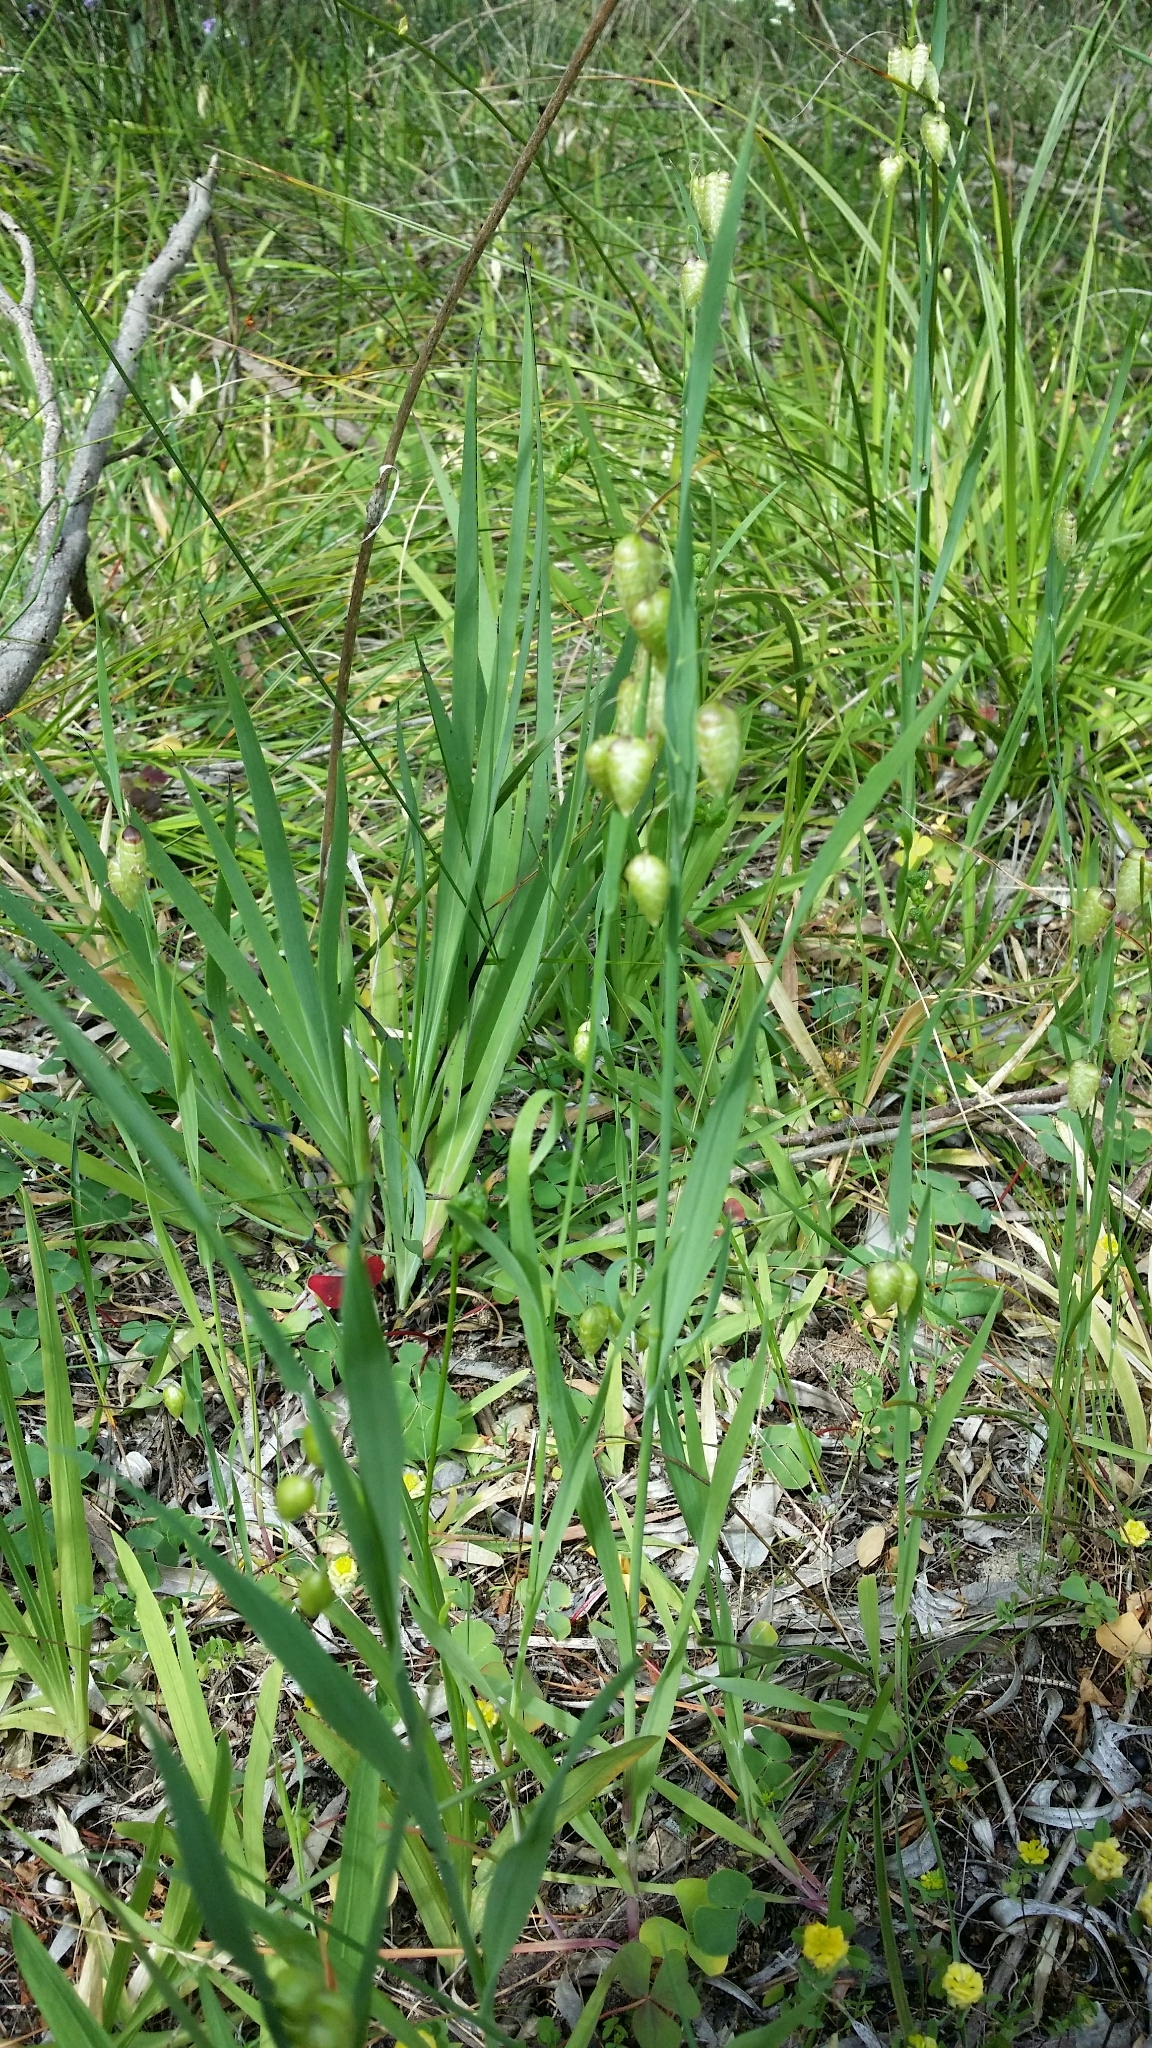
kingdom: Plantae
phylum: Tracheophyta
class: Liliopsida
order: Poales
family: Poaceae
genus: Briza
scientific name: Briza maxima
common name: Big quakinggrass
